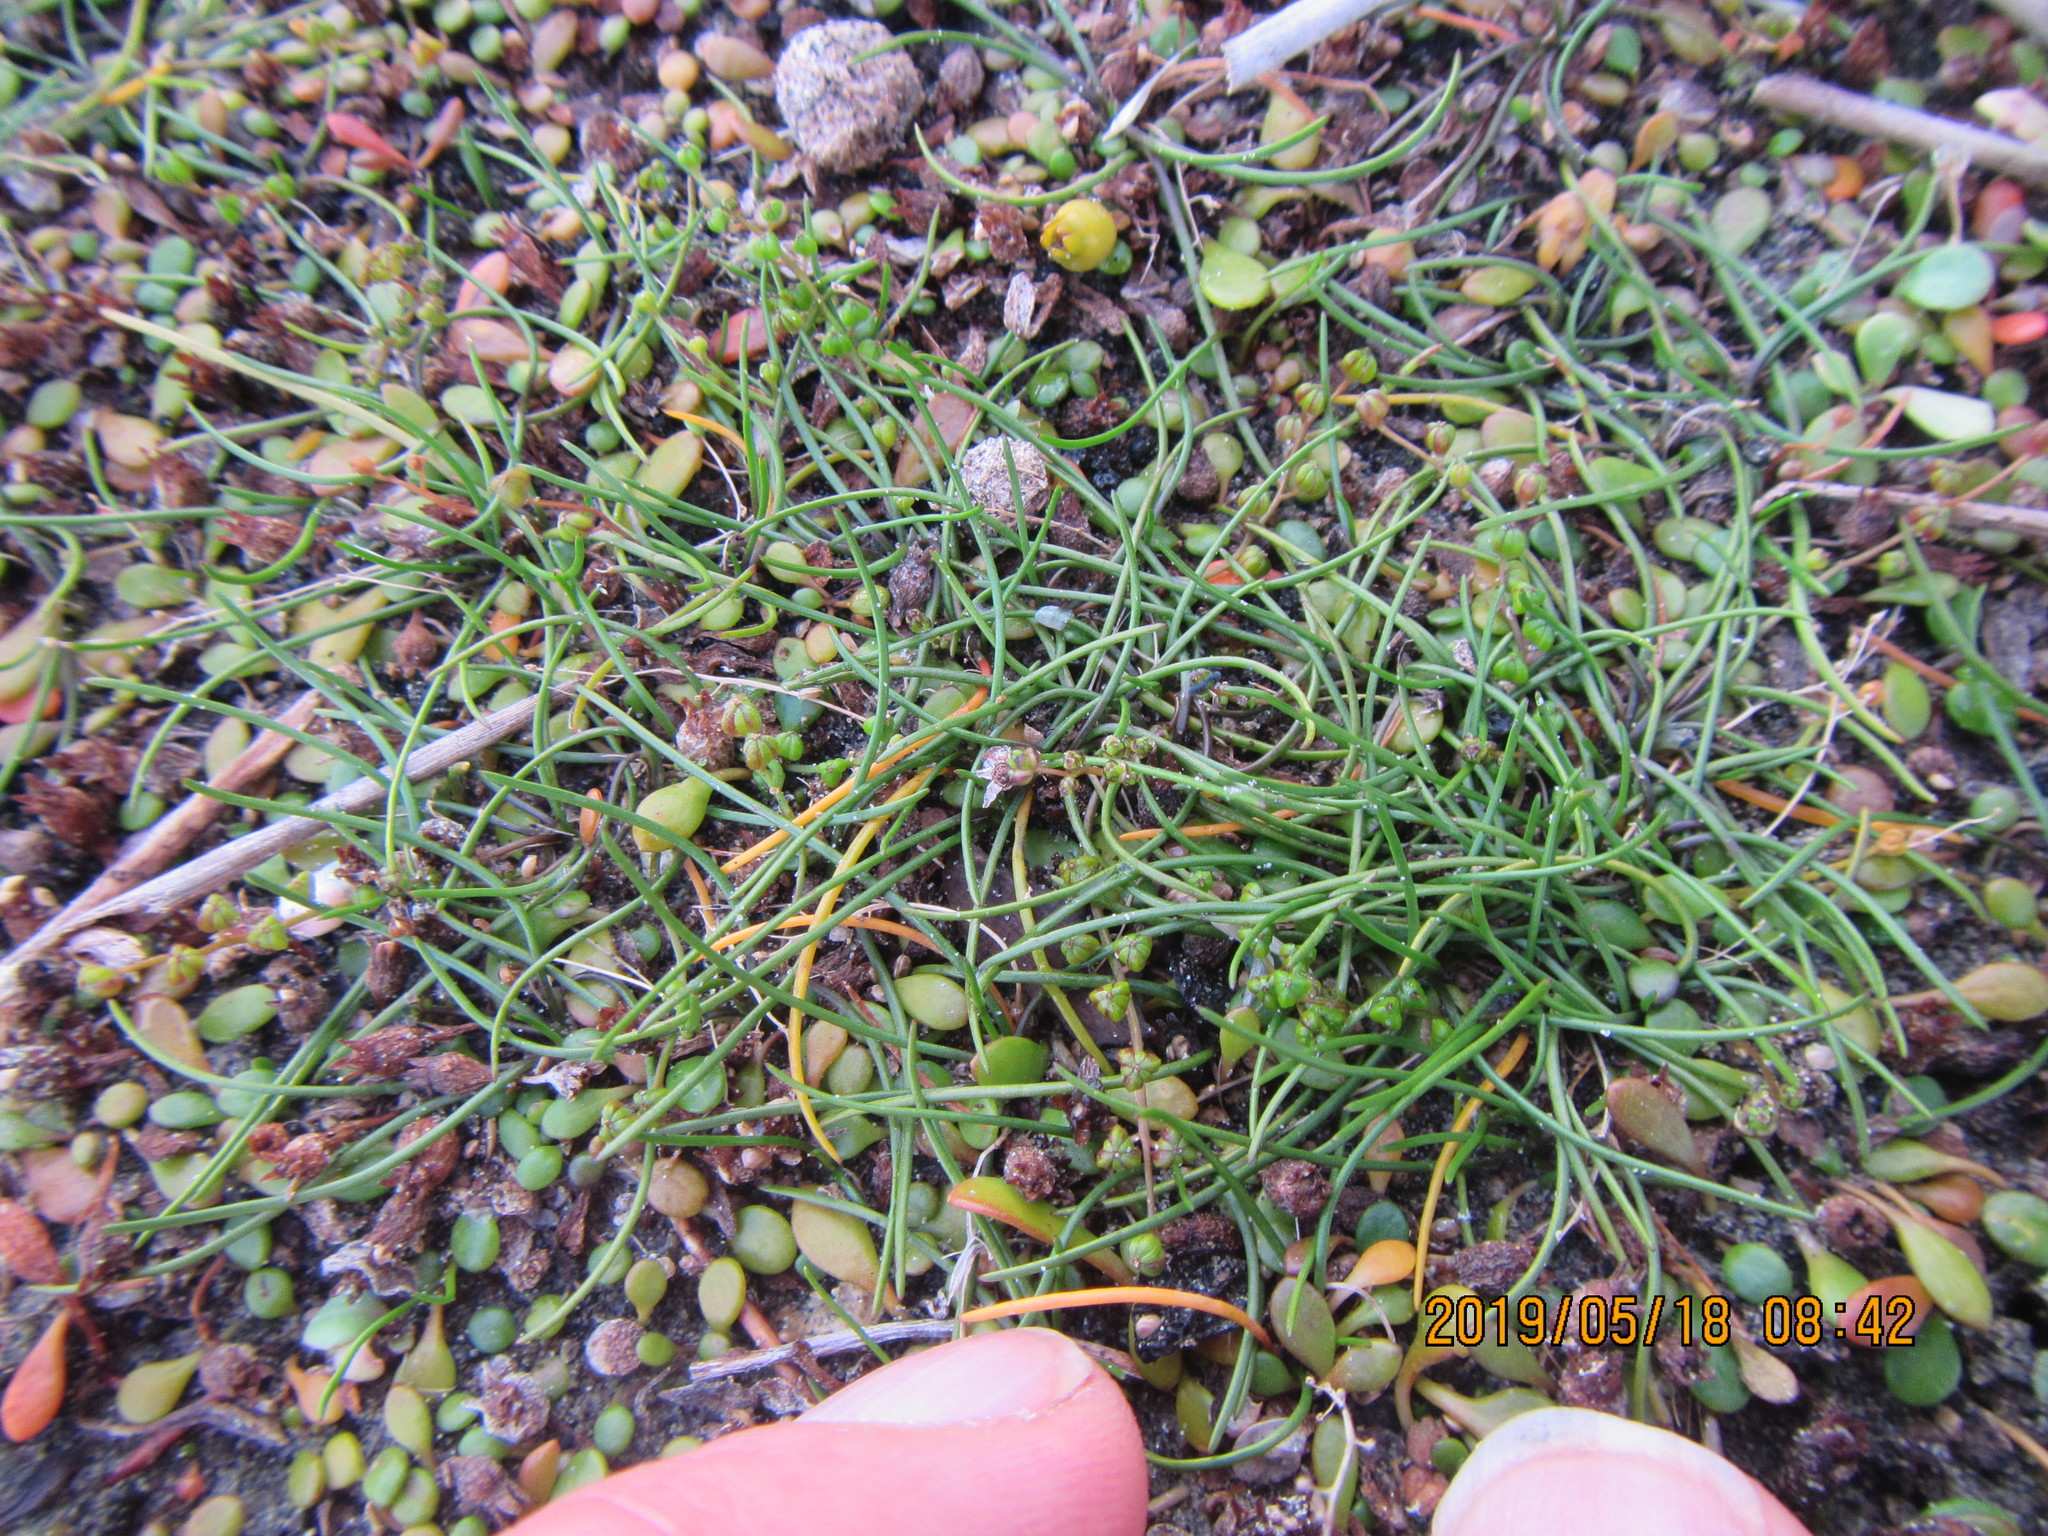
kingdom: Plantae
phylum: Tracheophyta
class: Liliopsida
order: Alismatales
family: Juncaginaceae
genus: Triglochin
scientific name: Triglochin striata
